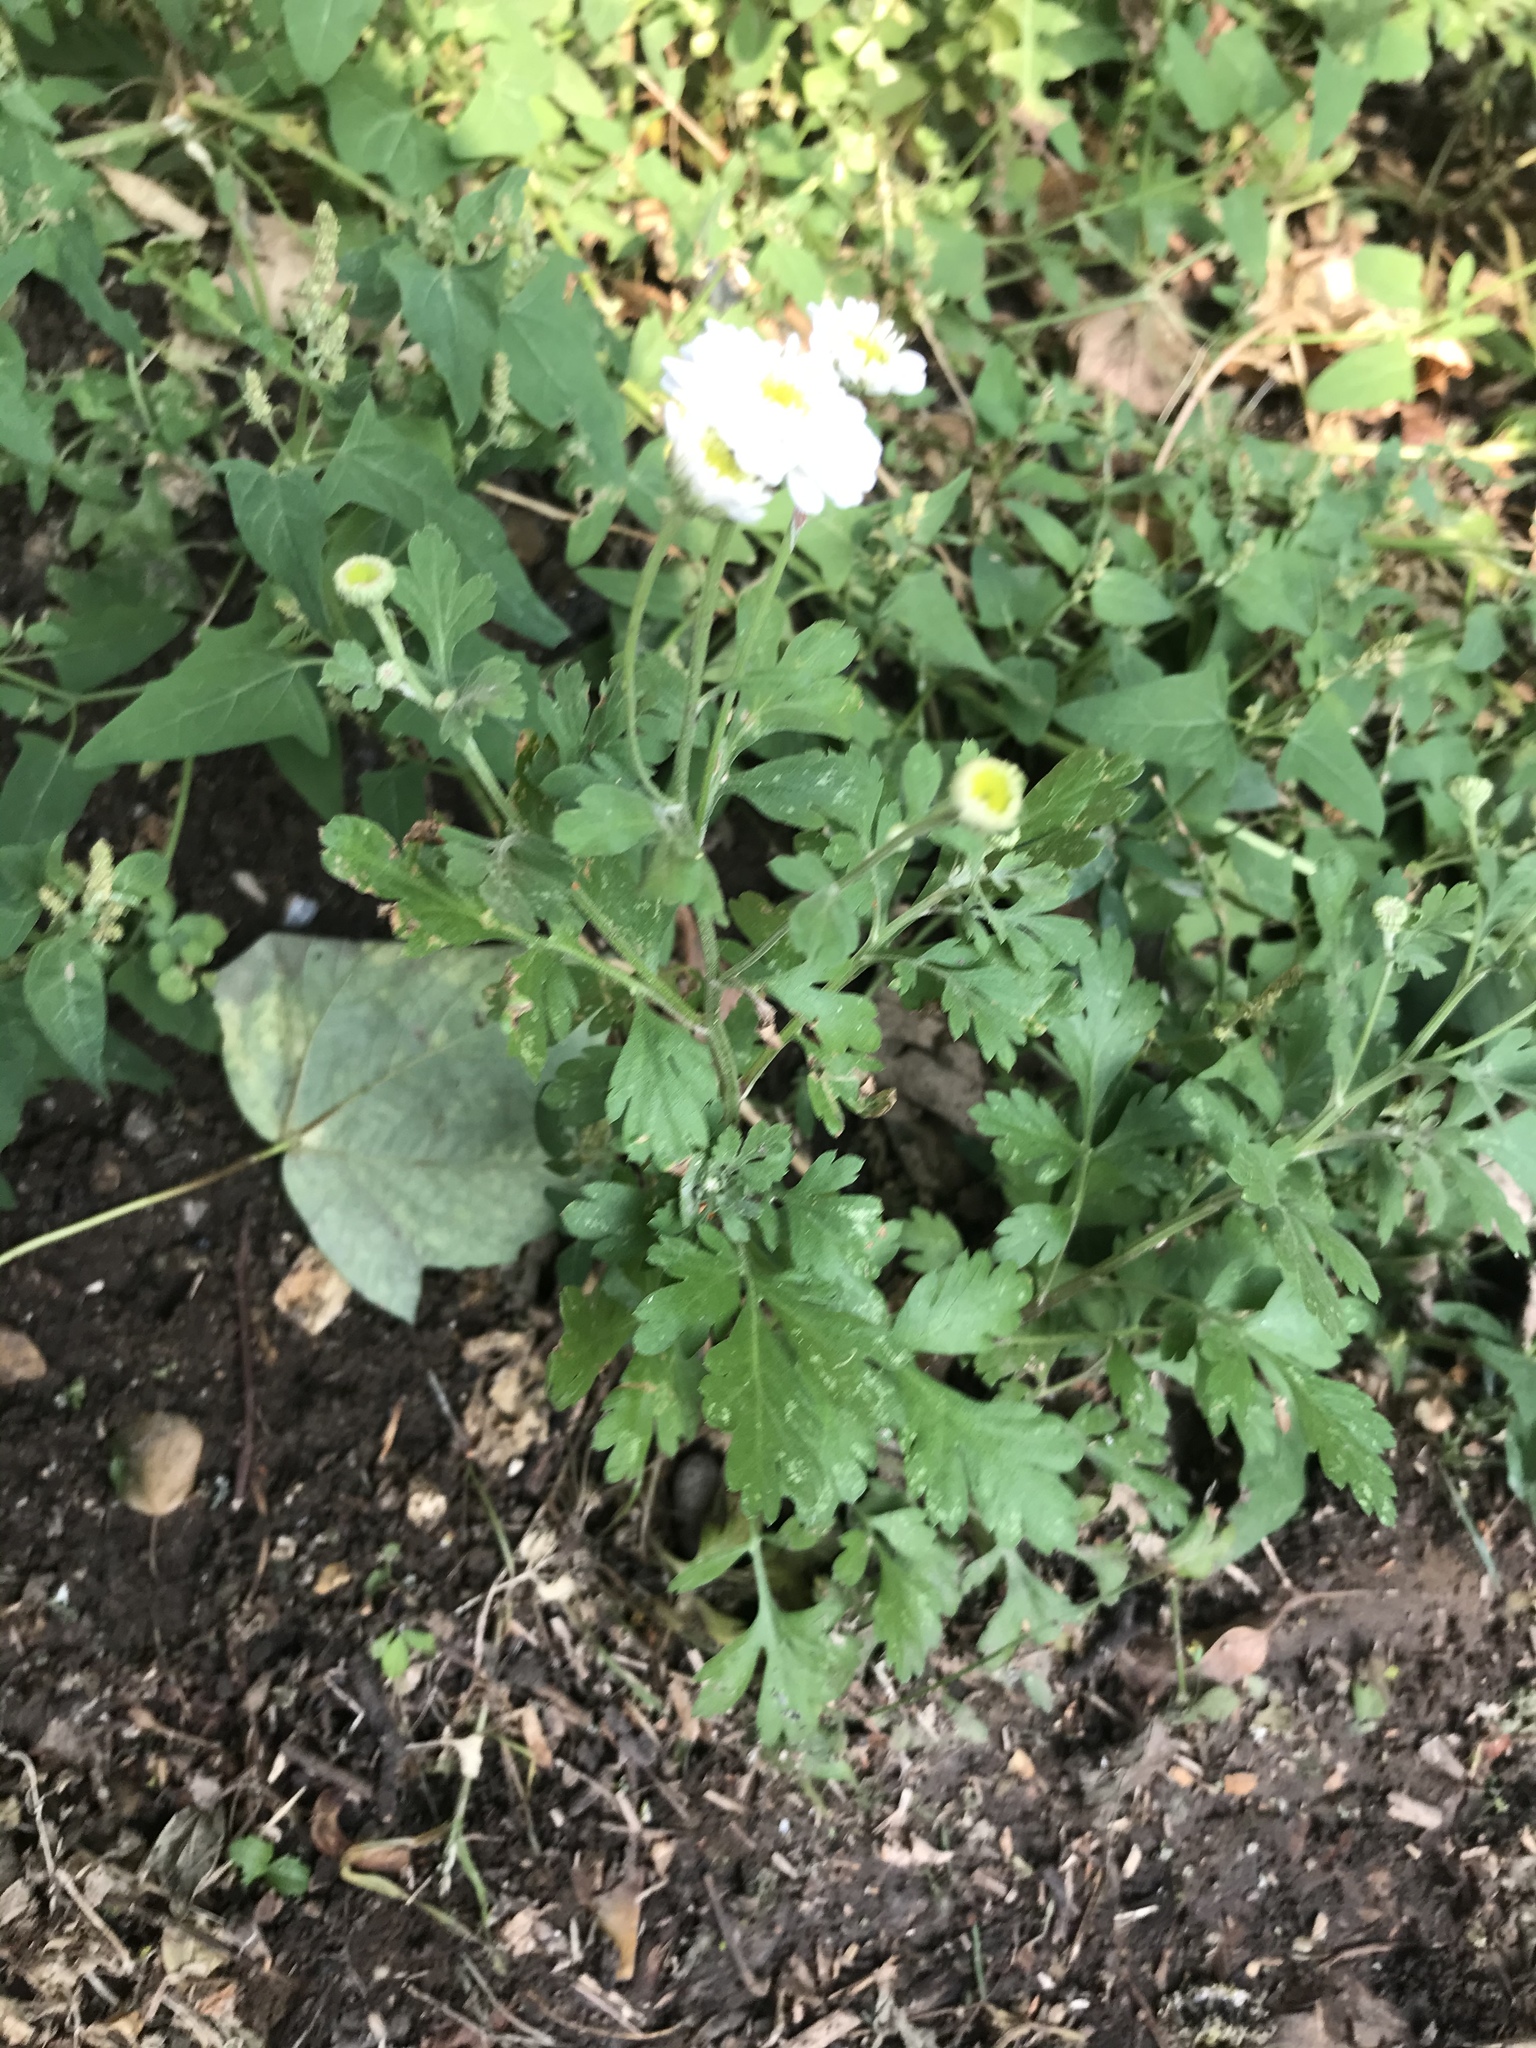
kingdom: Plantae
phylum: Tracheophyta
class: Magnoliopsida
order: Asterales
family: Asteraceae
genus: Tanacetum
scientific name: Tanacetum parthenium
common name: Feverfew
